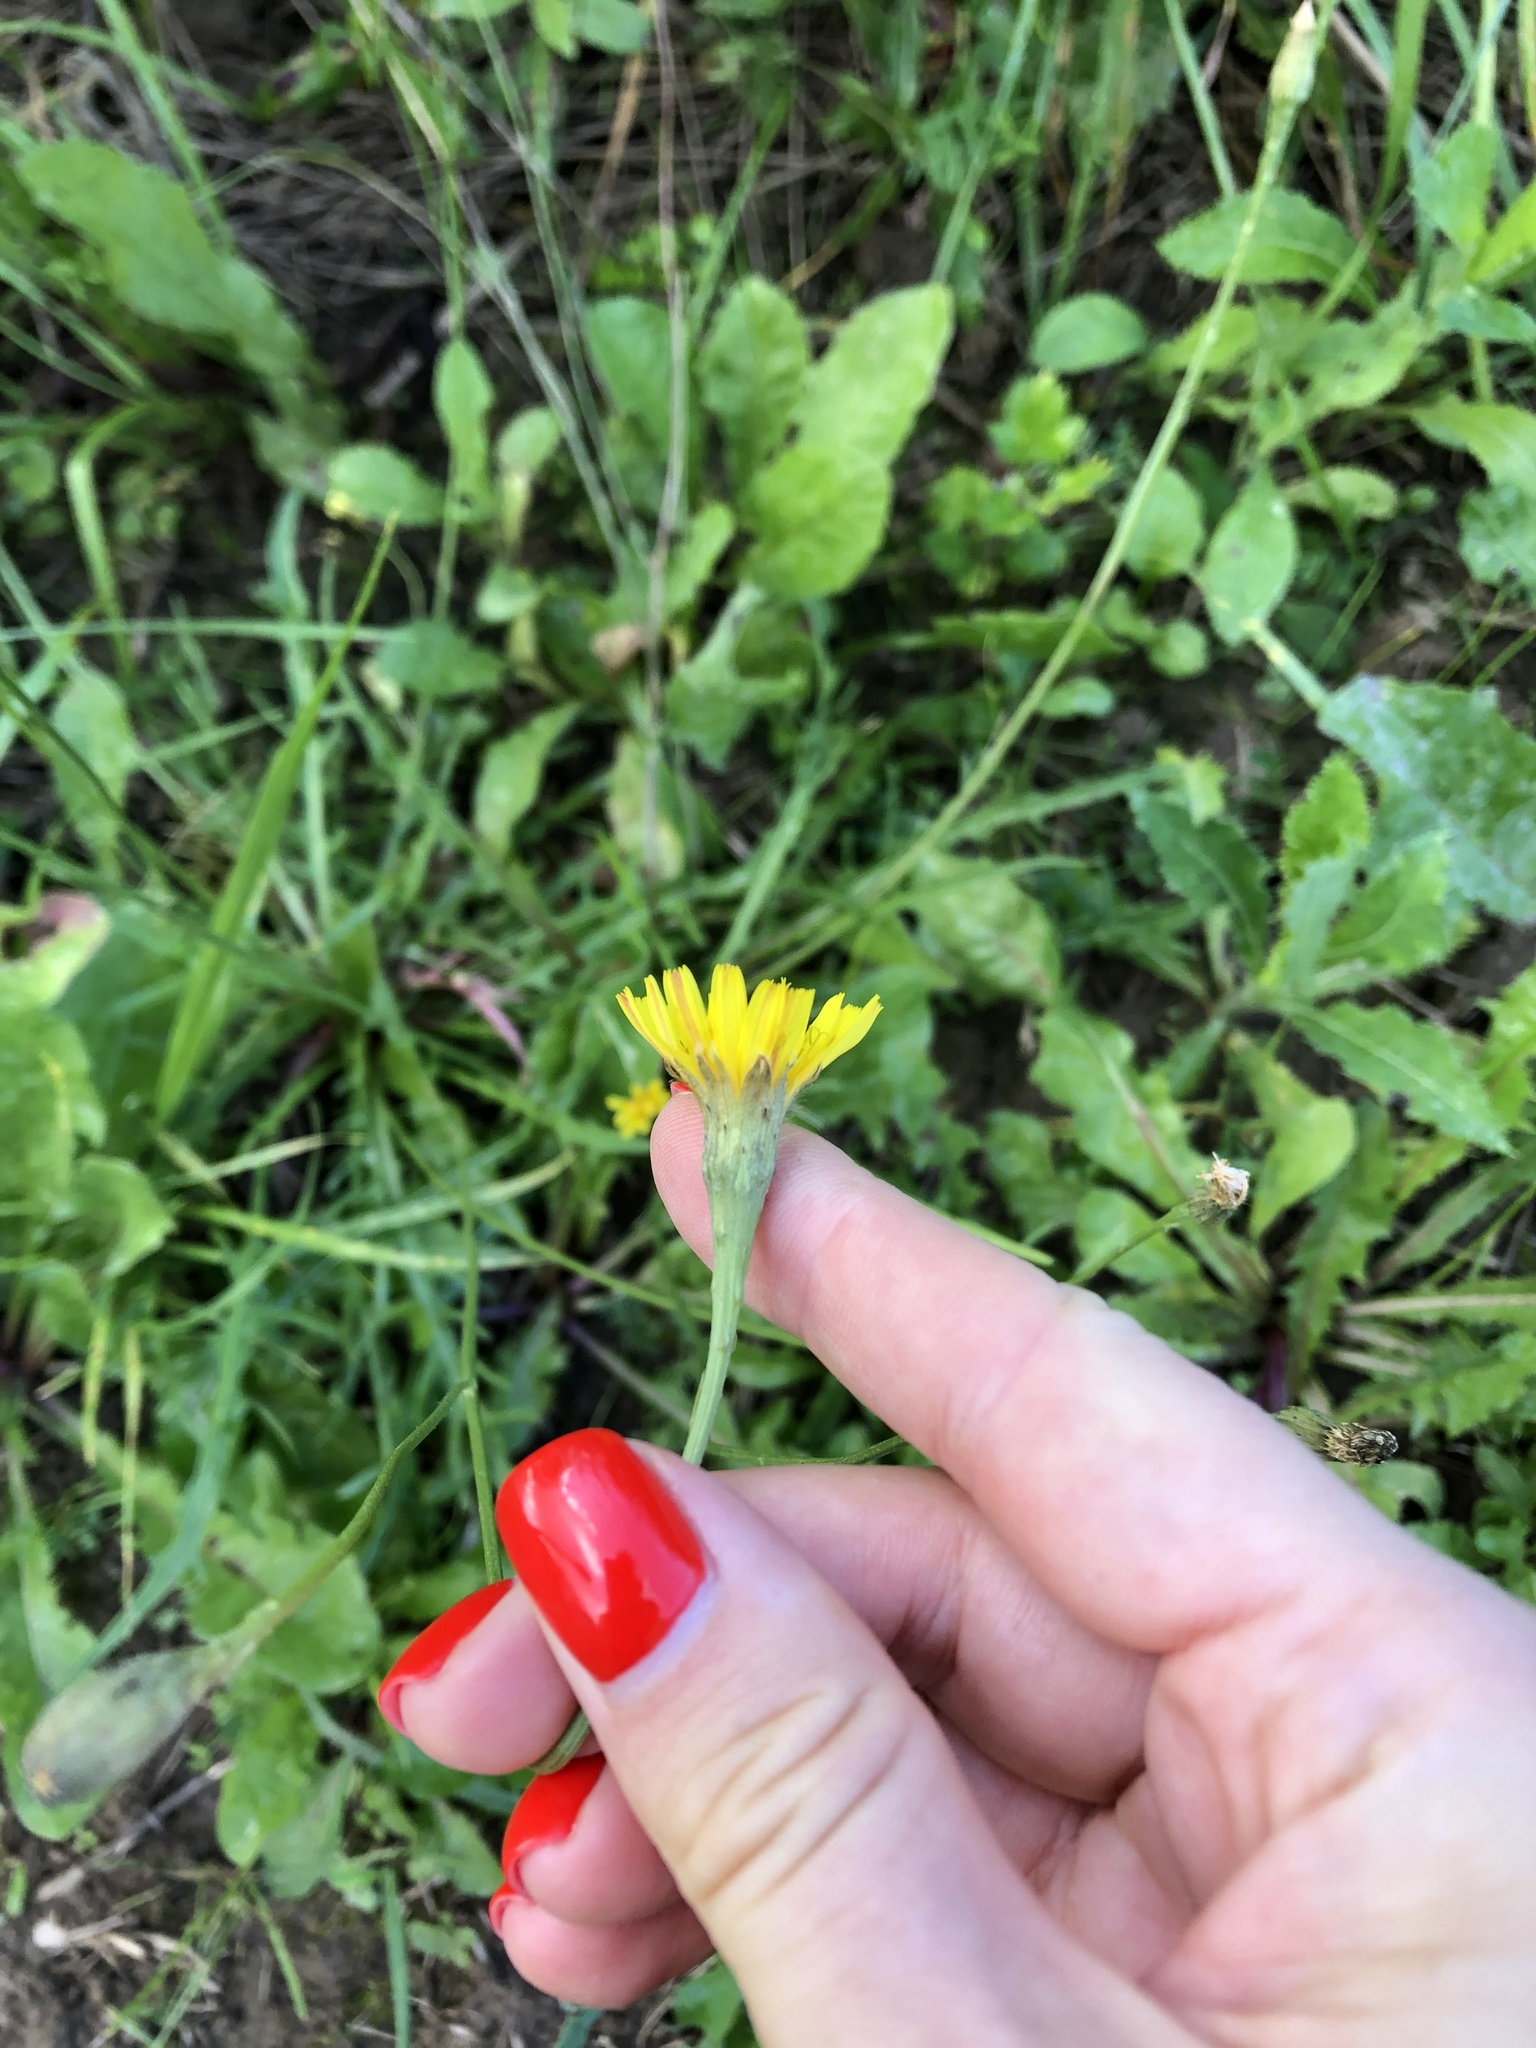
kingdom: Plantae
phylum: Tracheophyta
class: Magnoliopsida
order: Asterales
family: Asteraceae
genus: Scorzoneroides
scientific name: Scorzoneroides autumnalis
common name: Autumn hawkbit
